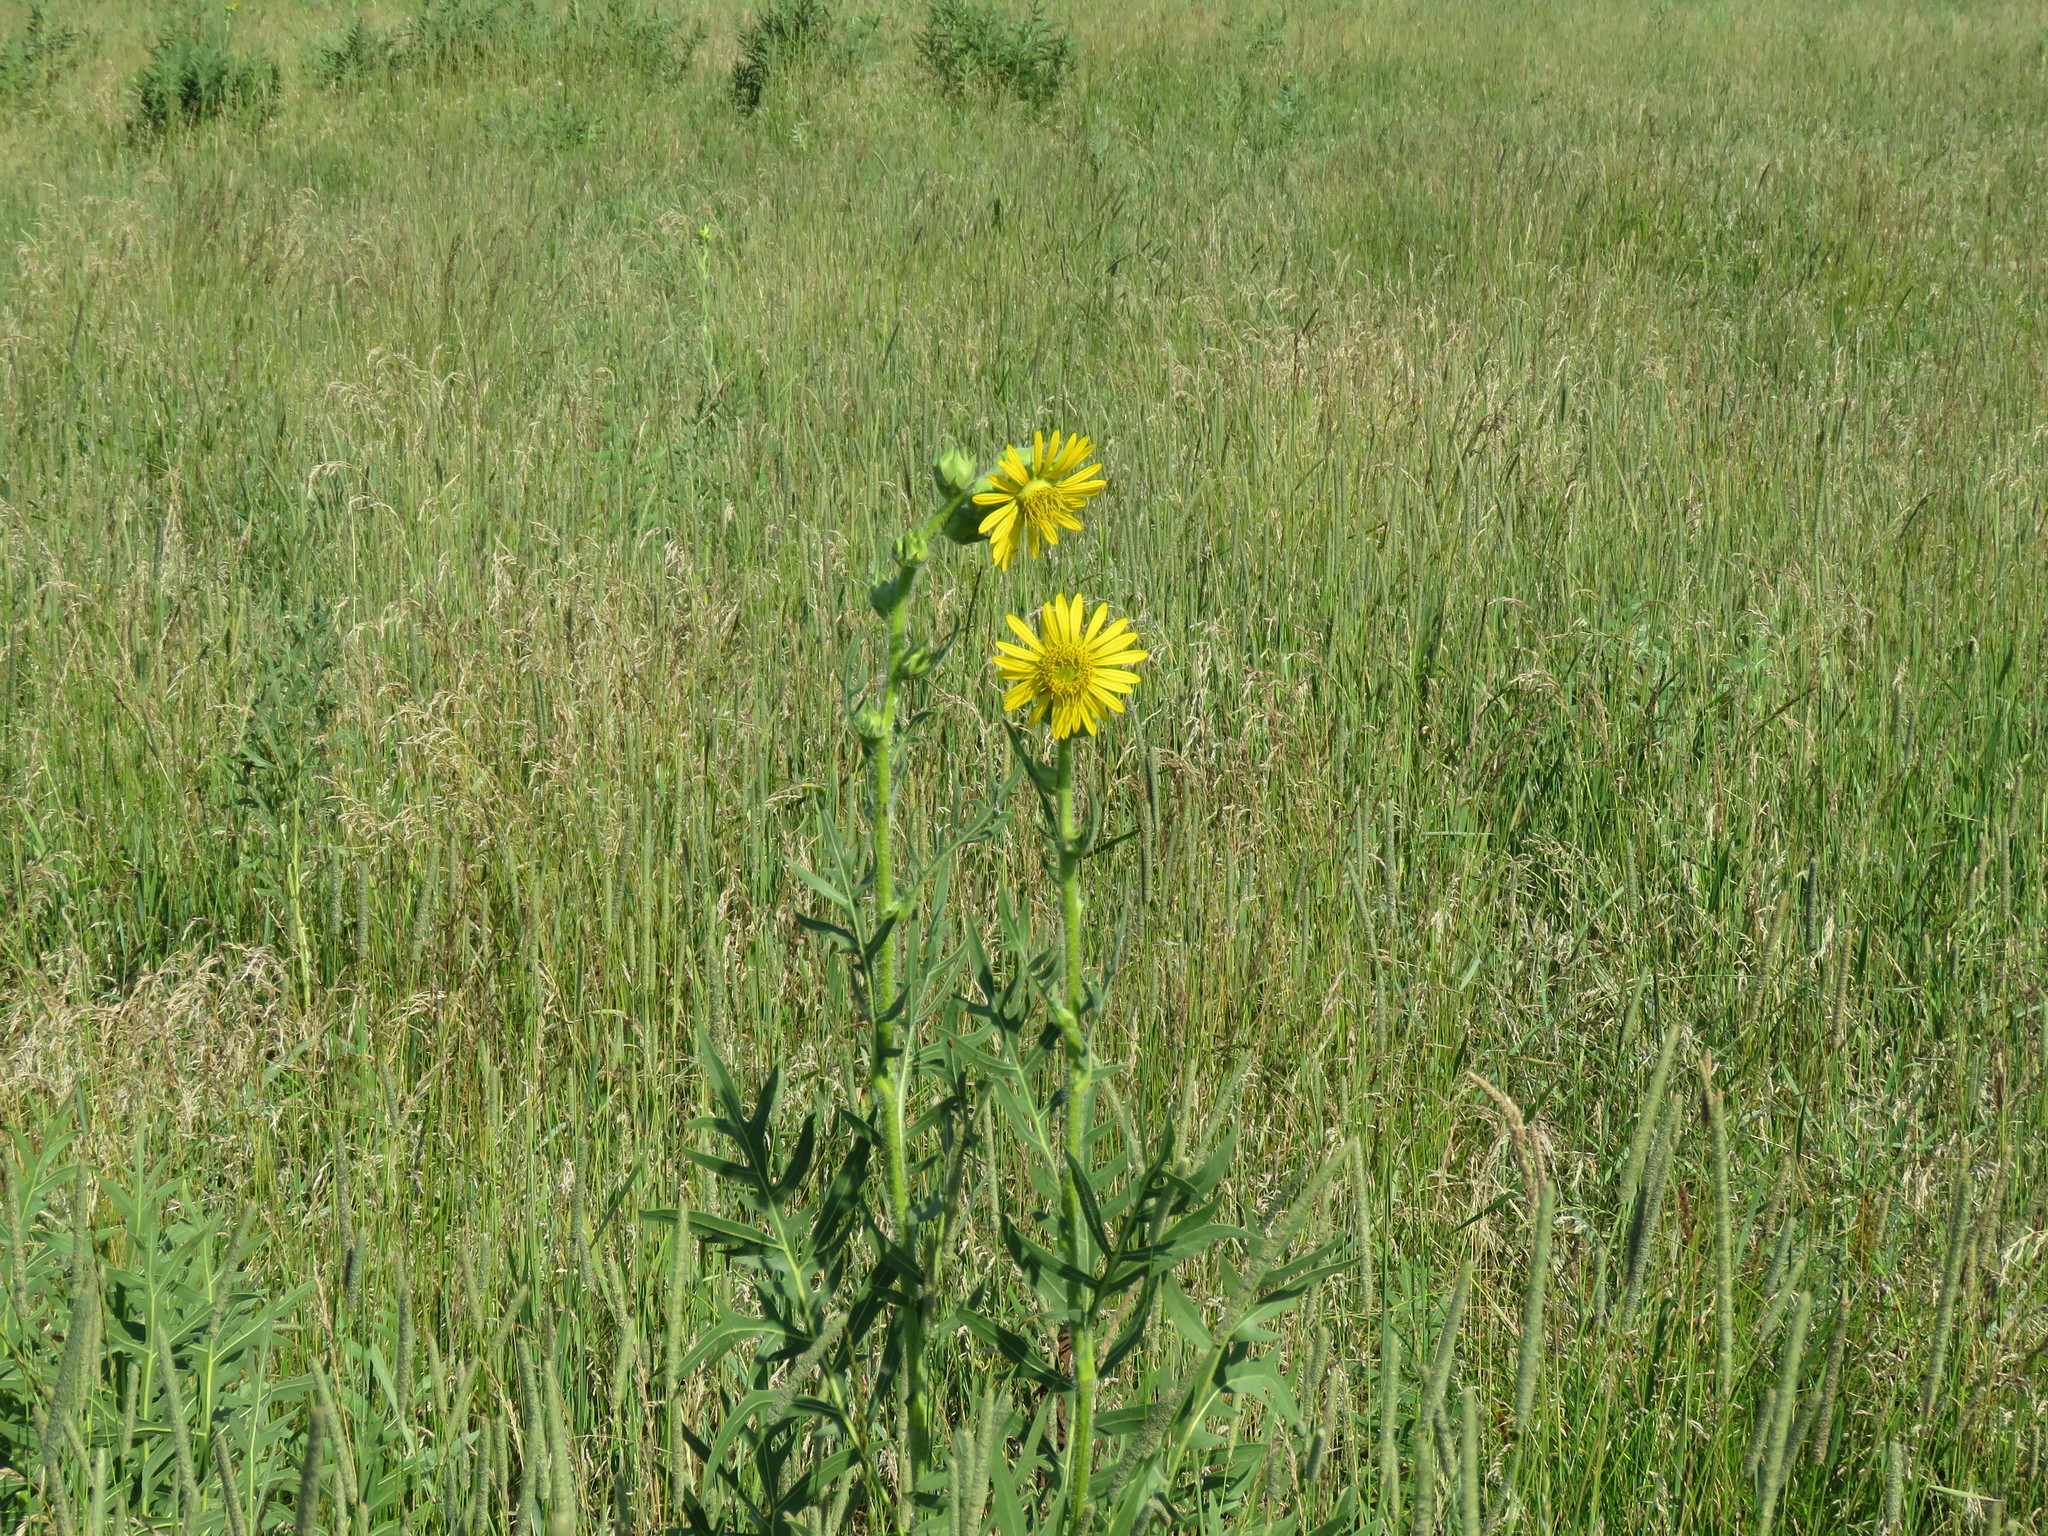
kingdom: Plantae
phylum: Tracheophyta
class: Magnoliopsida
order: Asterales
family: Asteraceae
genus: Silphium
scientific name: Silphium laciniatum
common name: Polarplant
